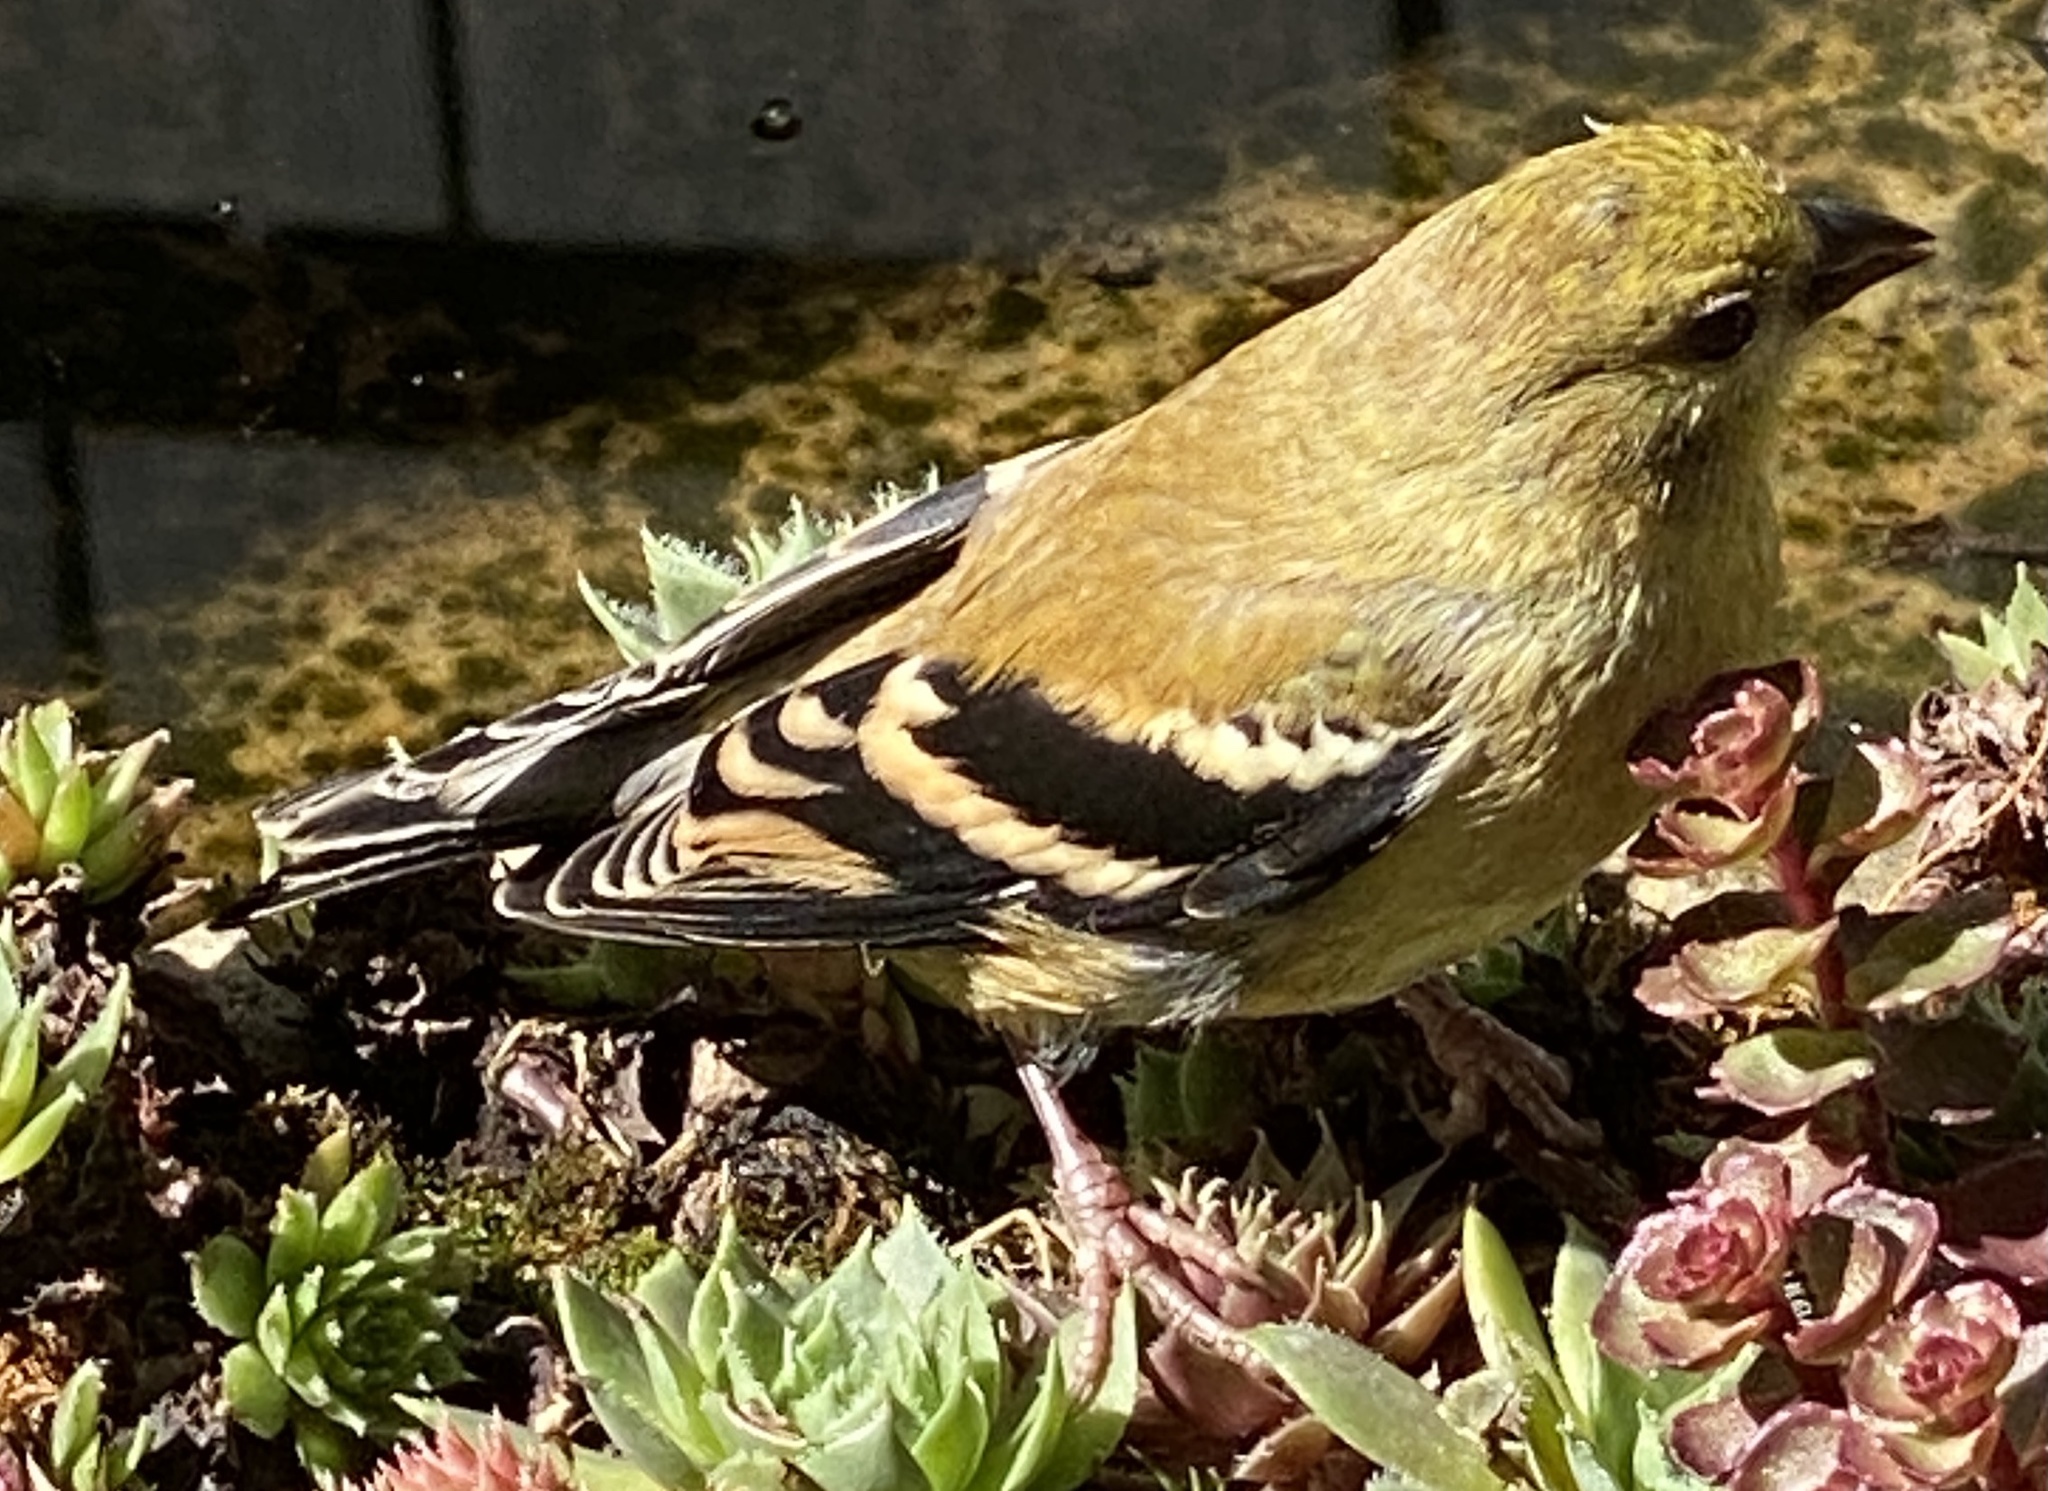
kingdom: Animalia
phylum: Chordata
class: Aves
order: Passeriformes
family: Fringillidae
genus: Spinus
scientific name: Spinus tristis
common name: American goldfinch
